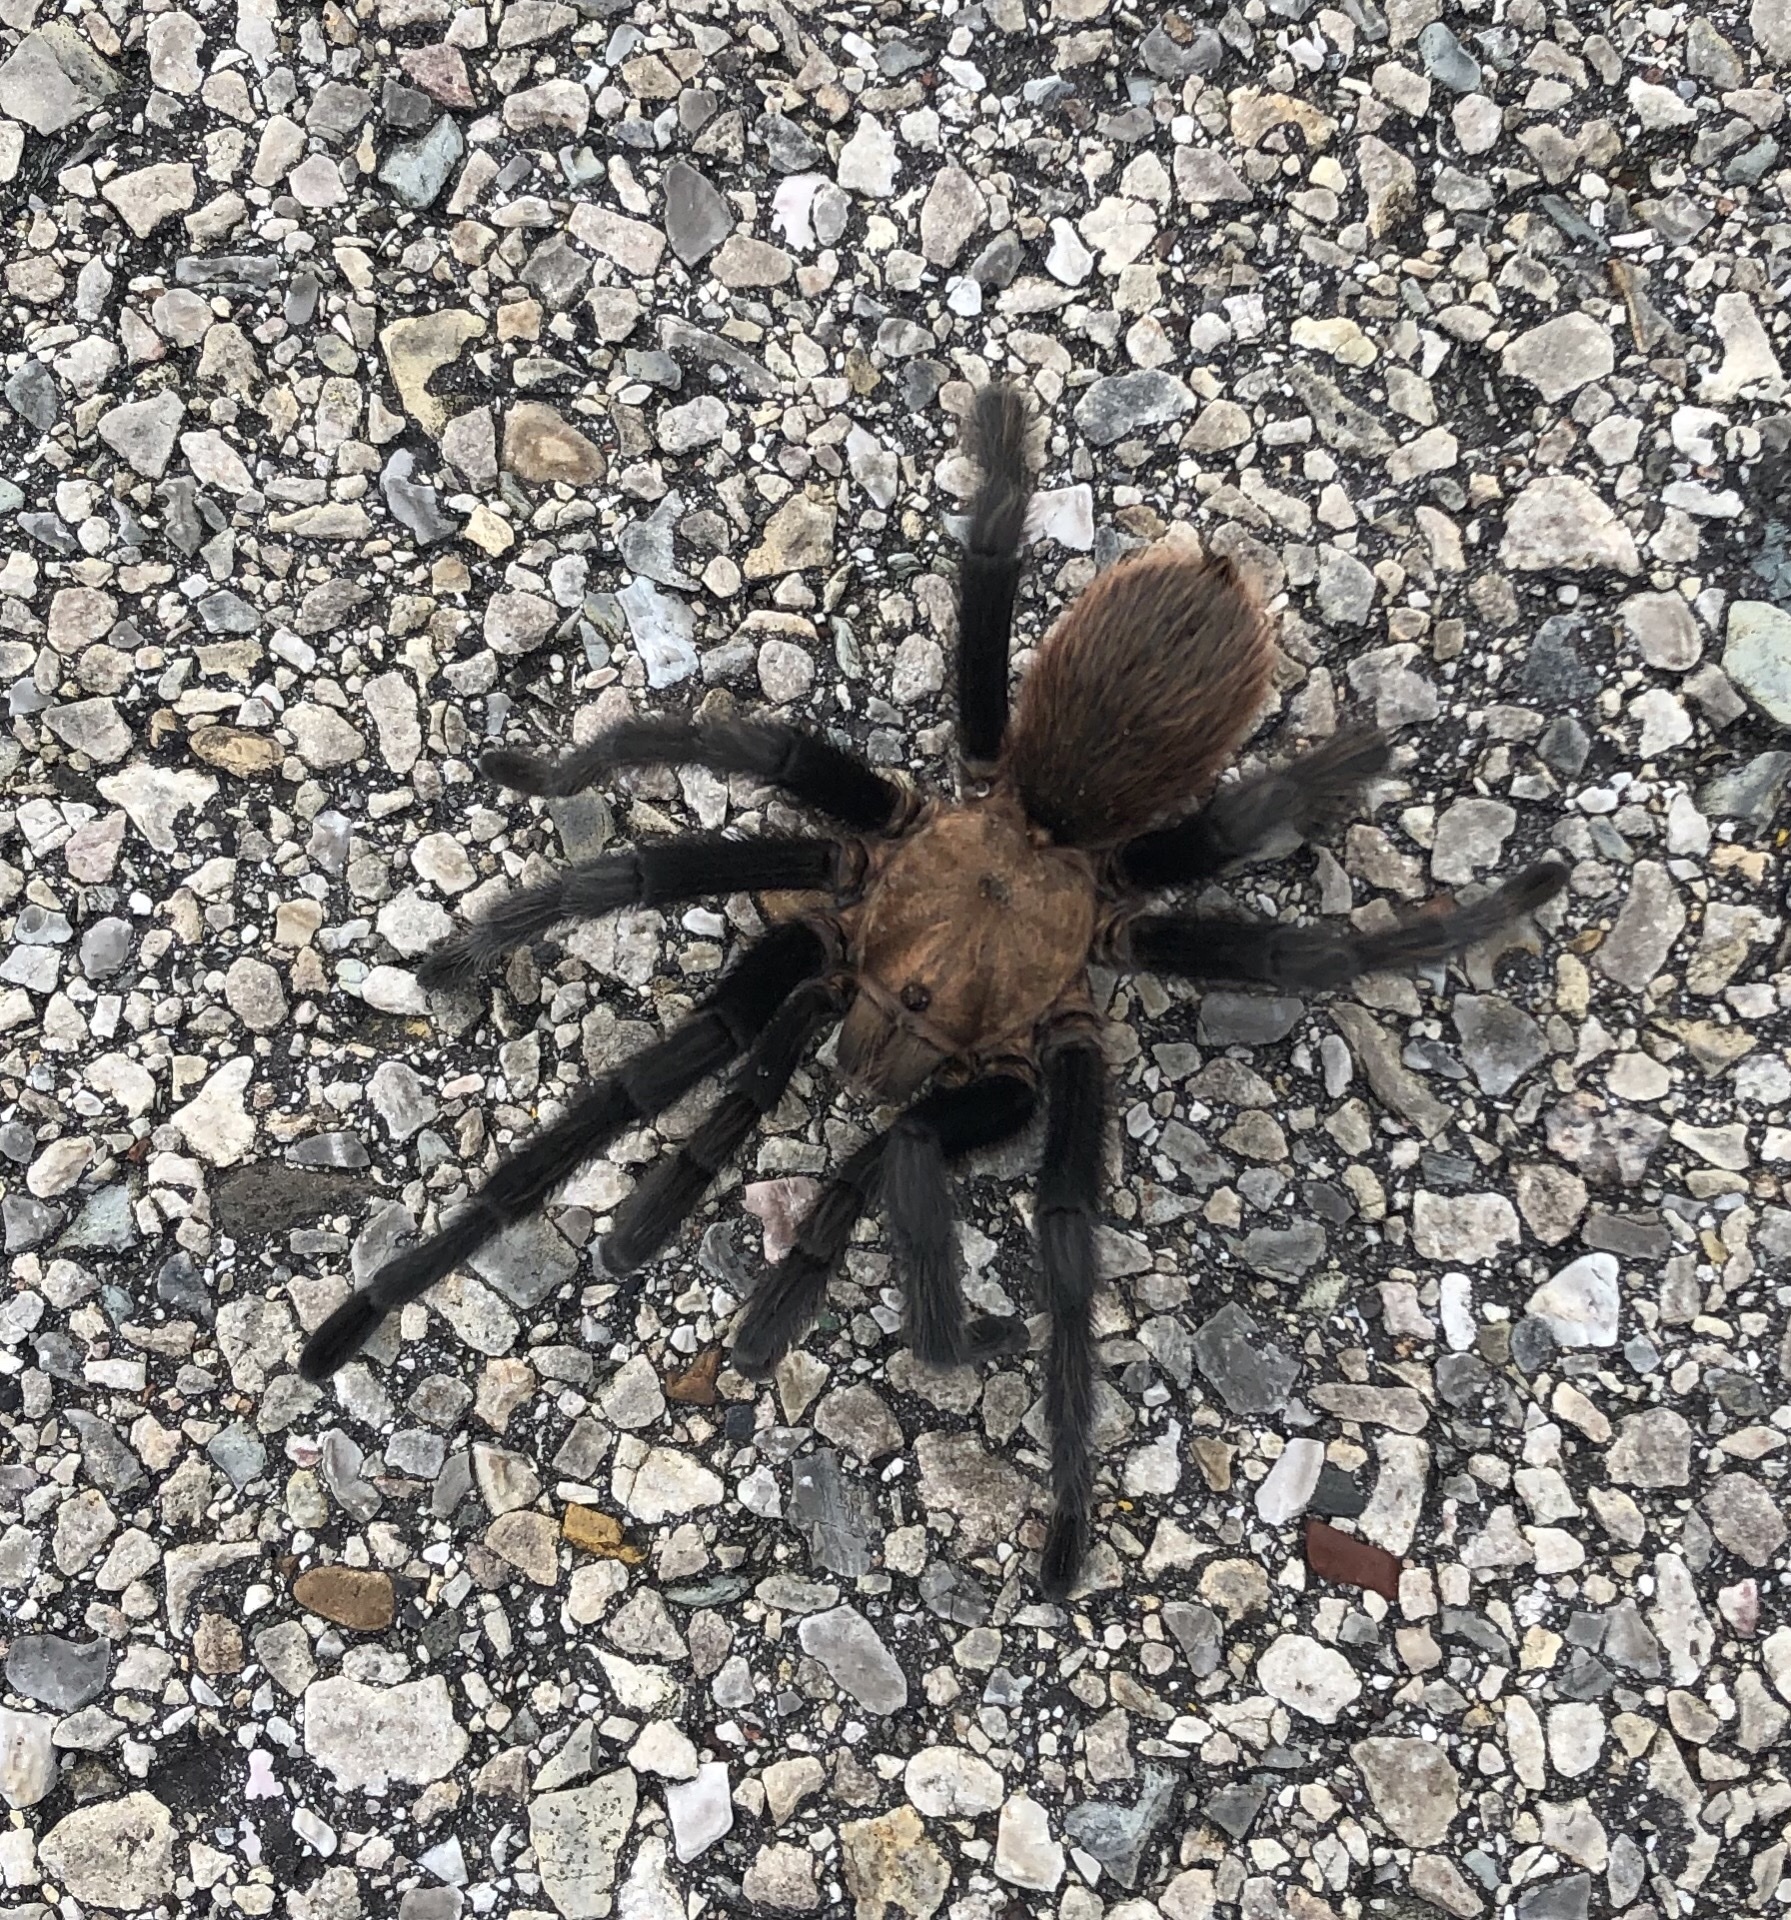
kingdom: Animalia
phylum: Arthropoda
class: Arachnida
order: Araneae
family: Theraphosidae
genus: Aphonopelma
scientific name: Aphonopelma hentzi
